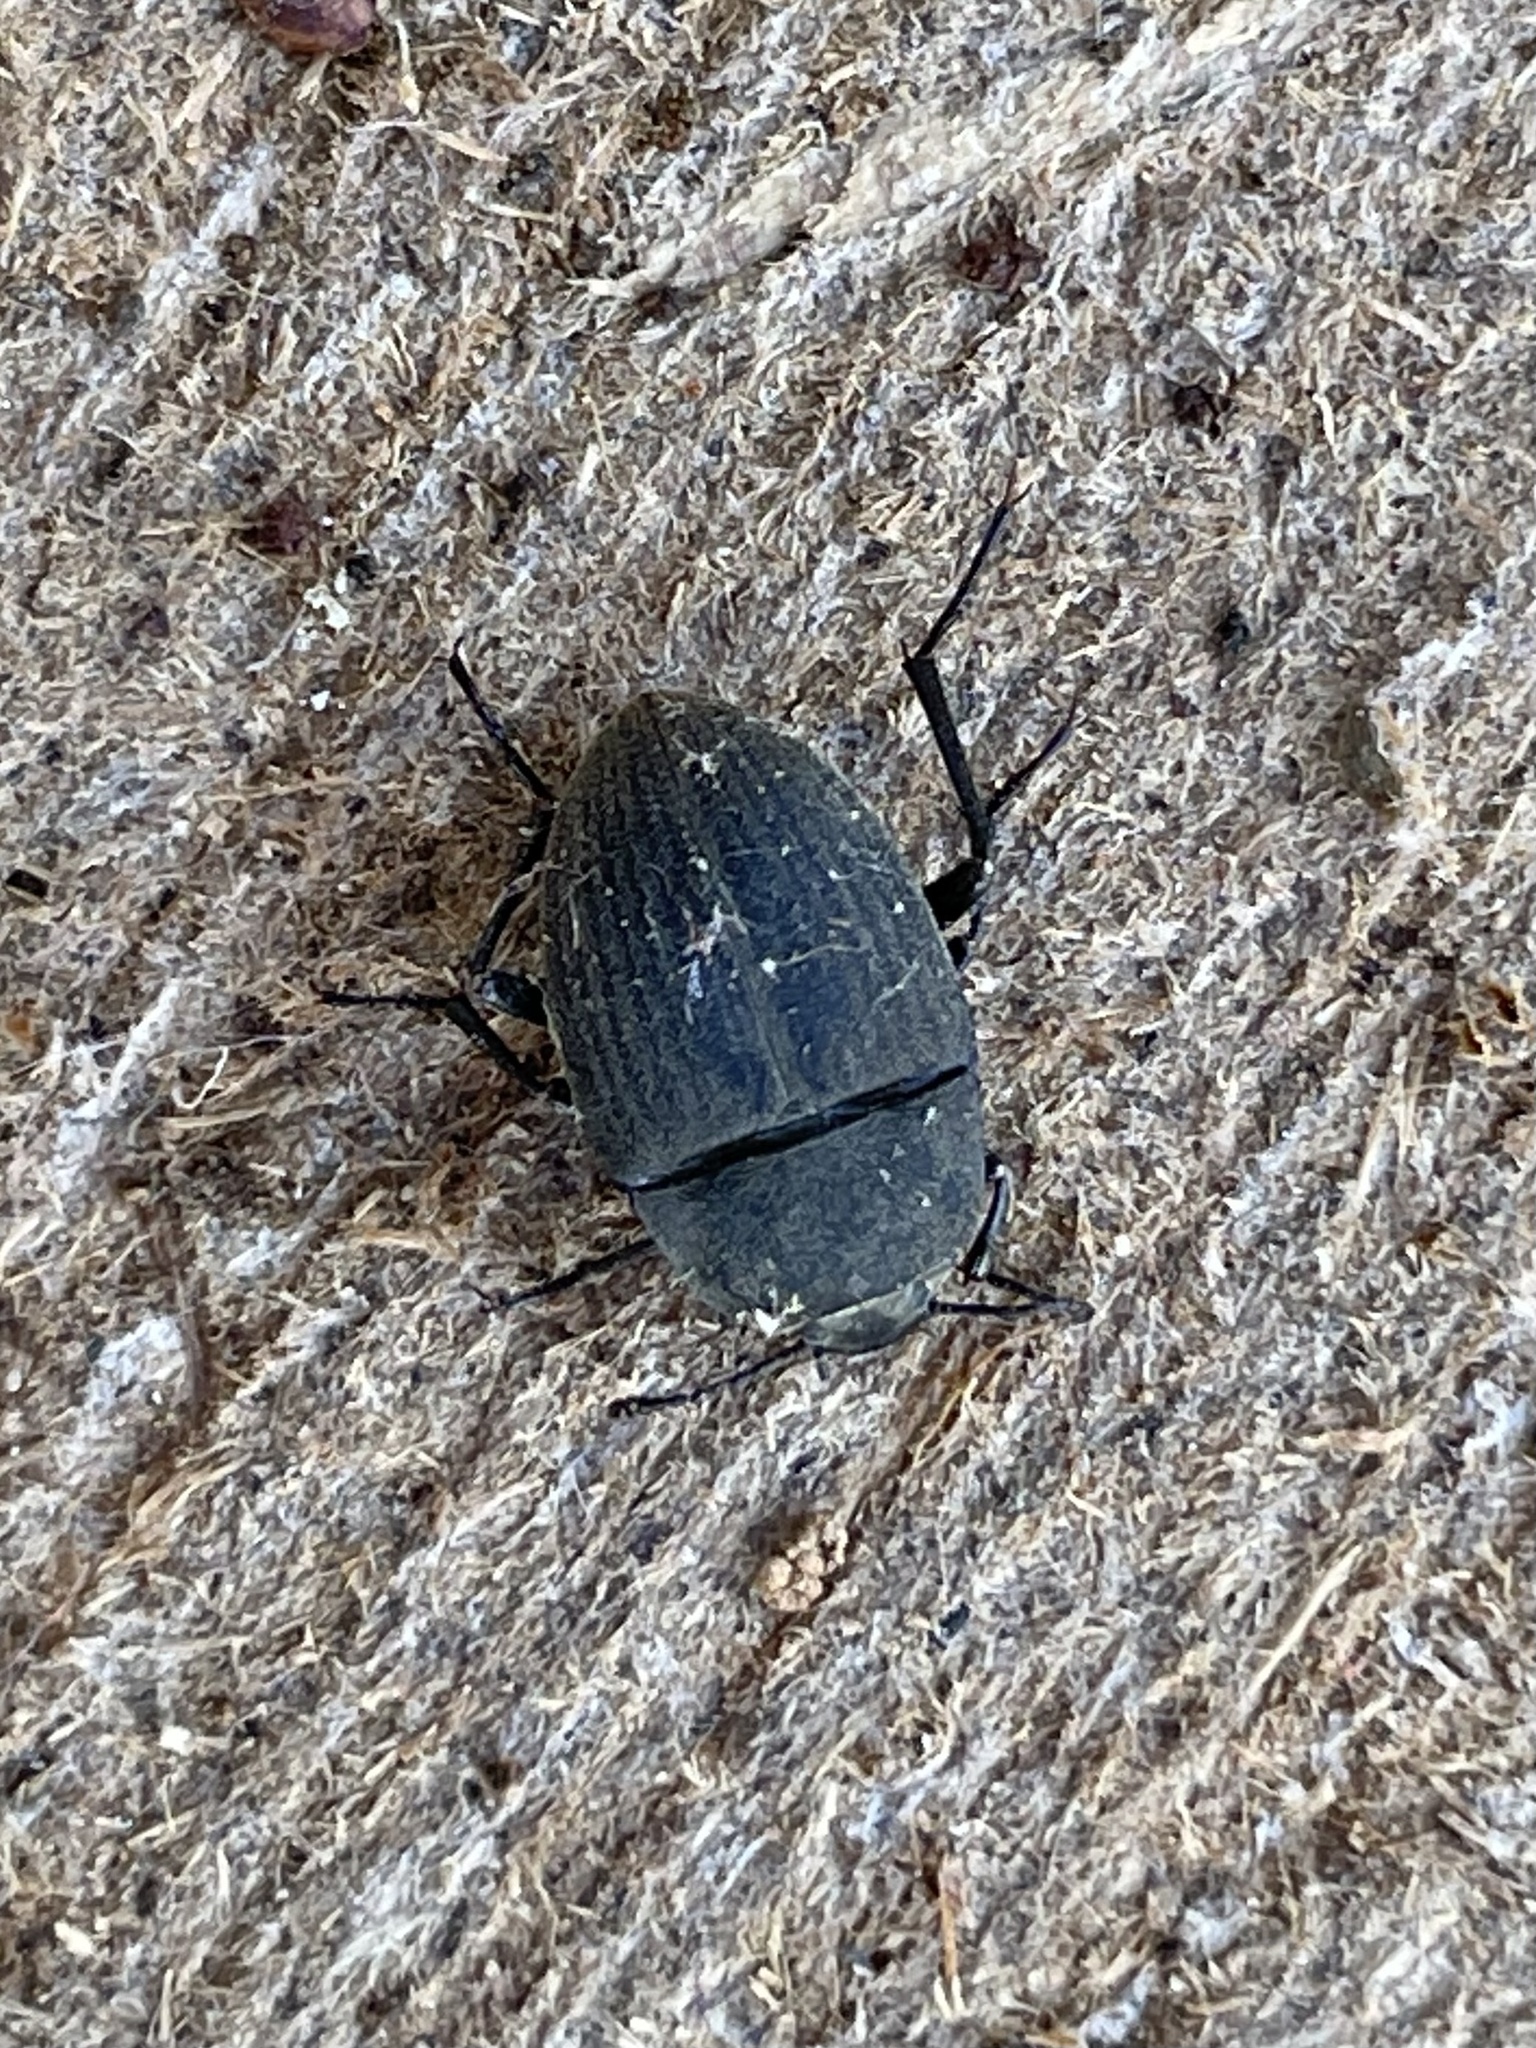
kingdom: Animalia
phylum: Arthropoda
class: Insecta
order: Coleoptera
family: Tenebrionidae
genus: Eleodes
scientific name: Eleodes veterator
